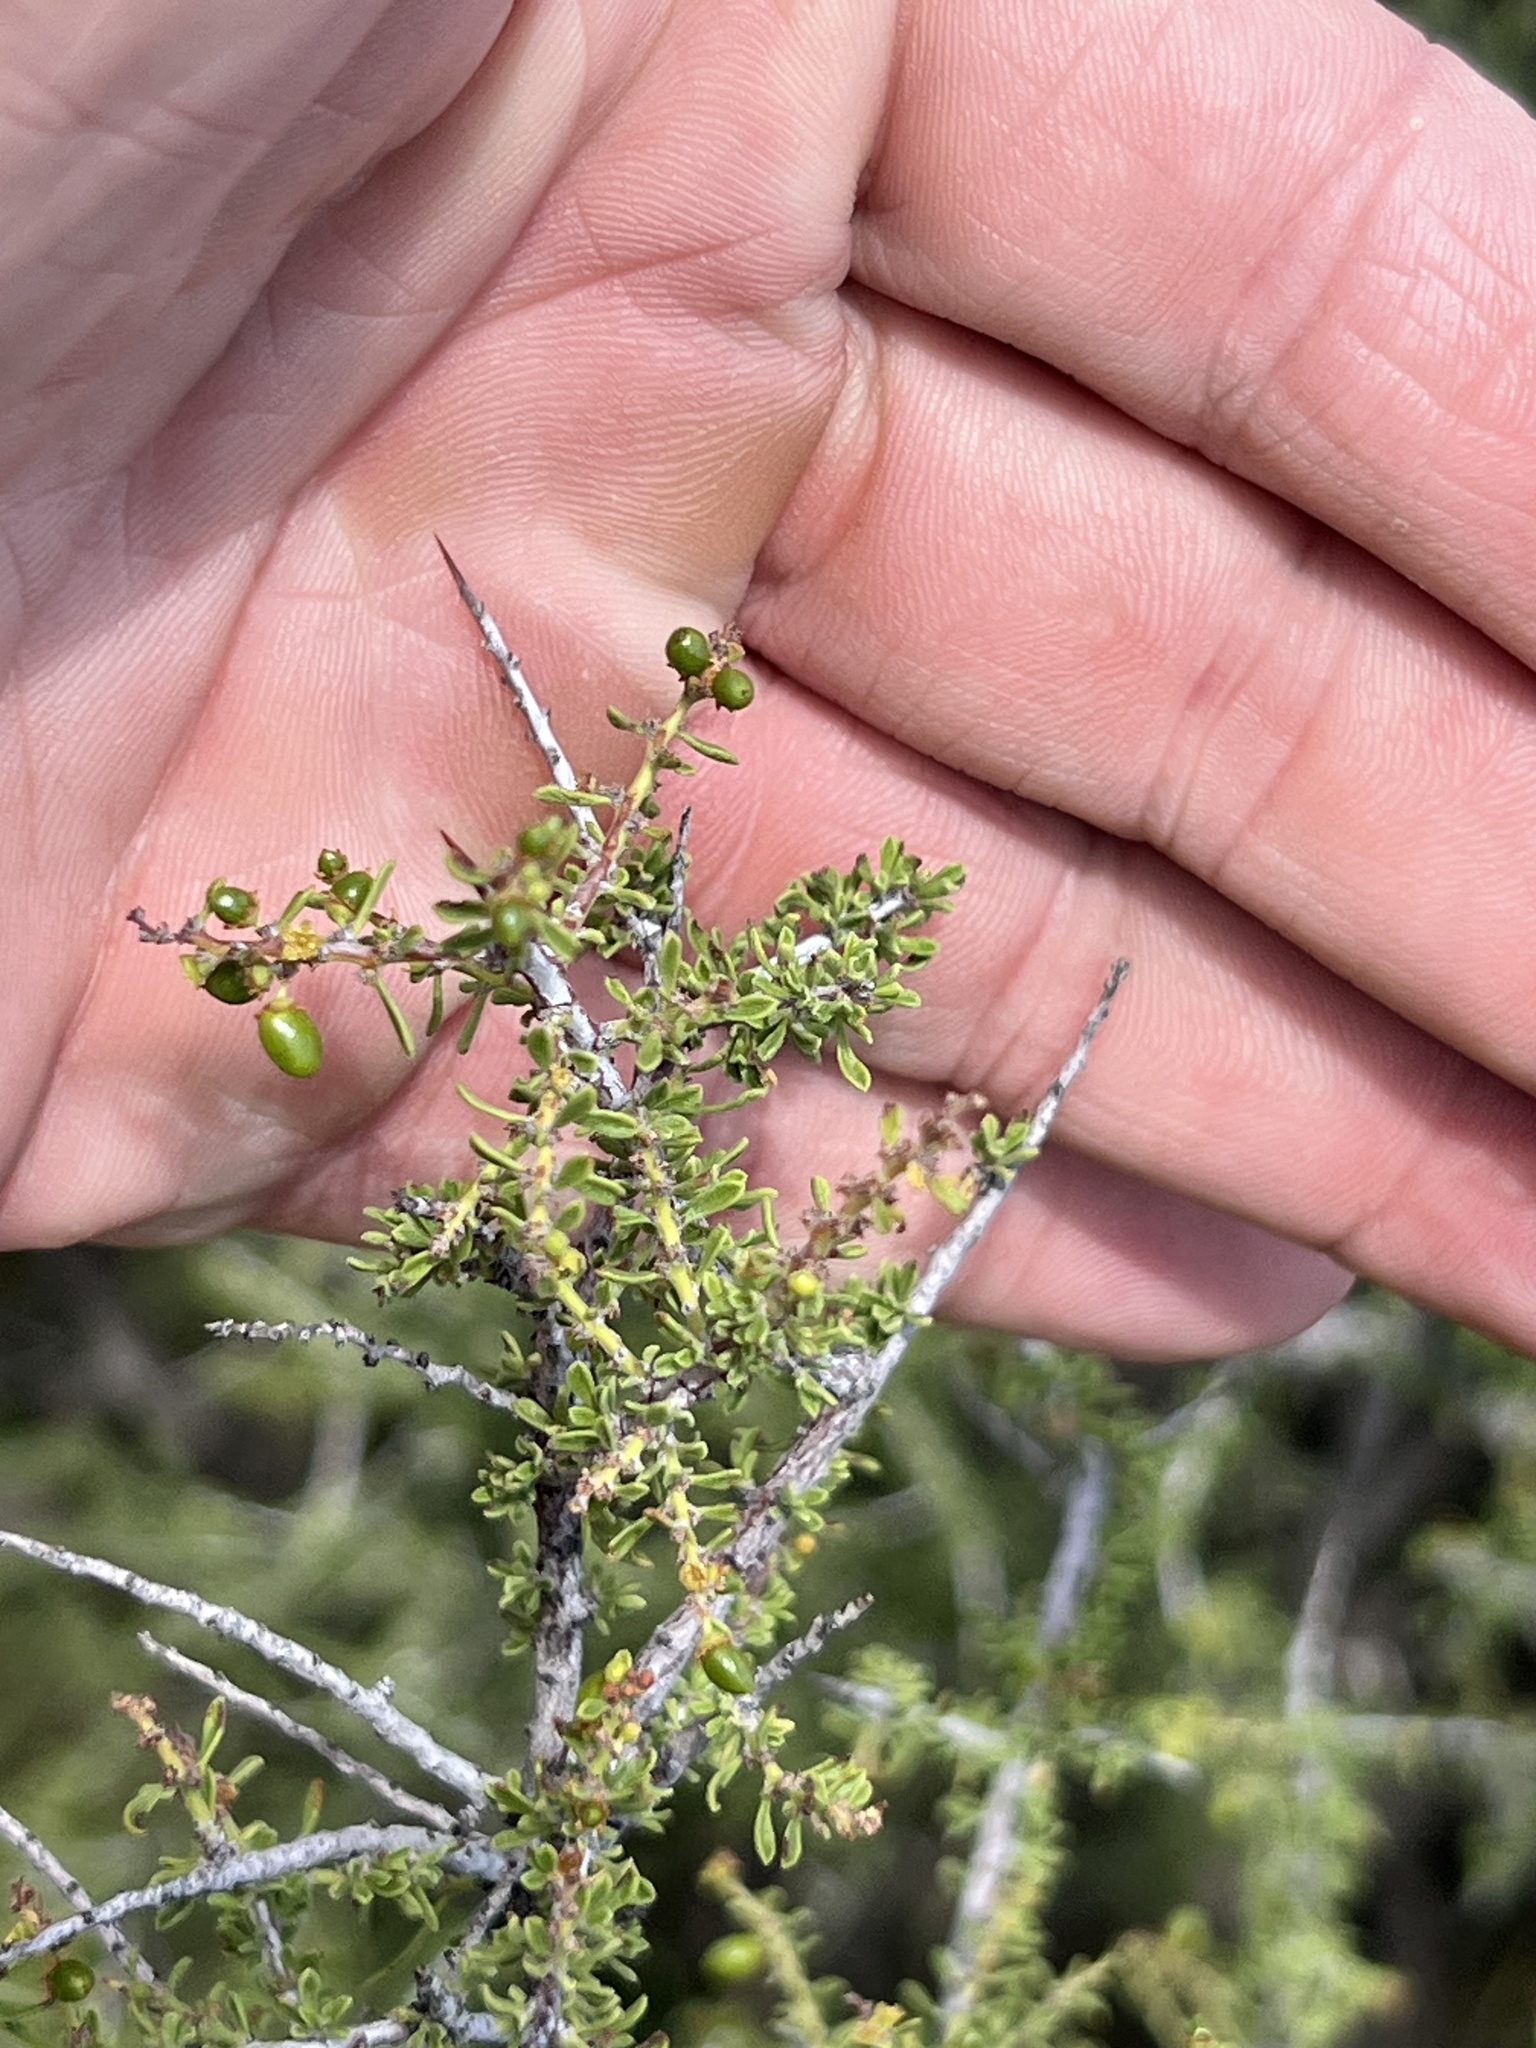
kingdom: Plantae
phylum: Tracheophyta
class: Magnoliopsida
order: Rosales
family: Rhamnaceae
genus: Condalia
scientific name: Condalia warnockii
